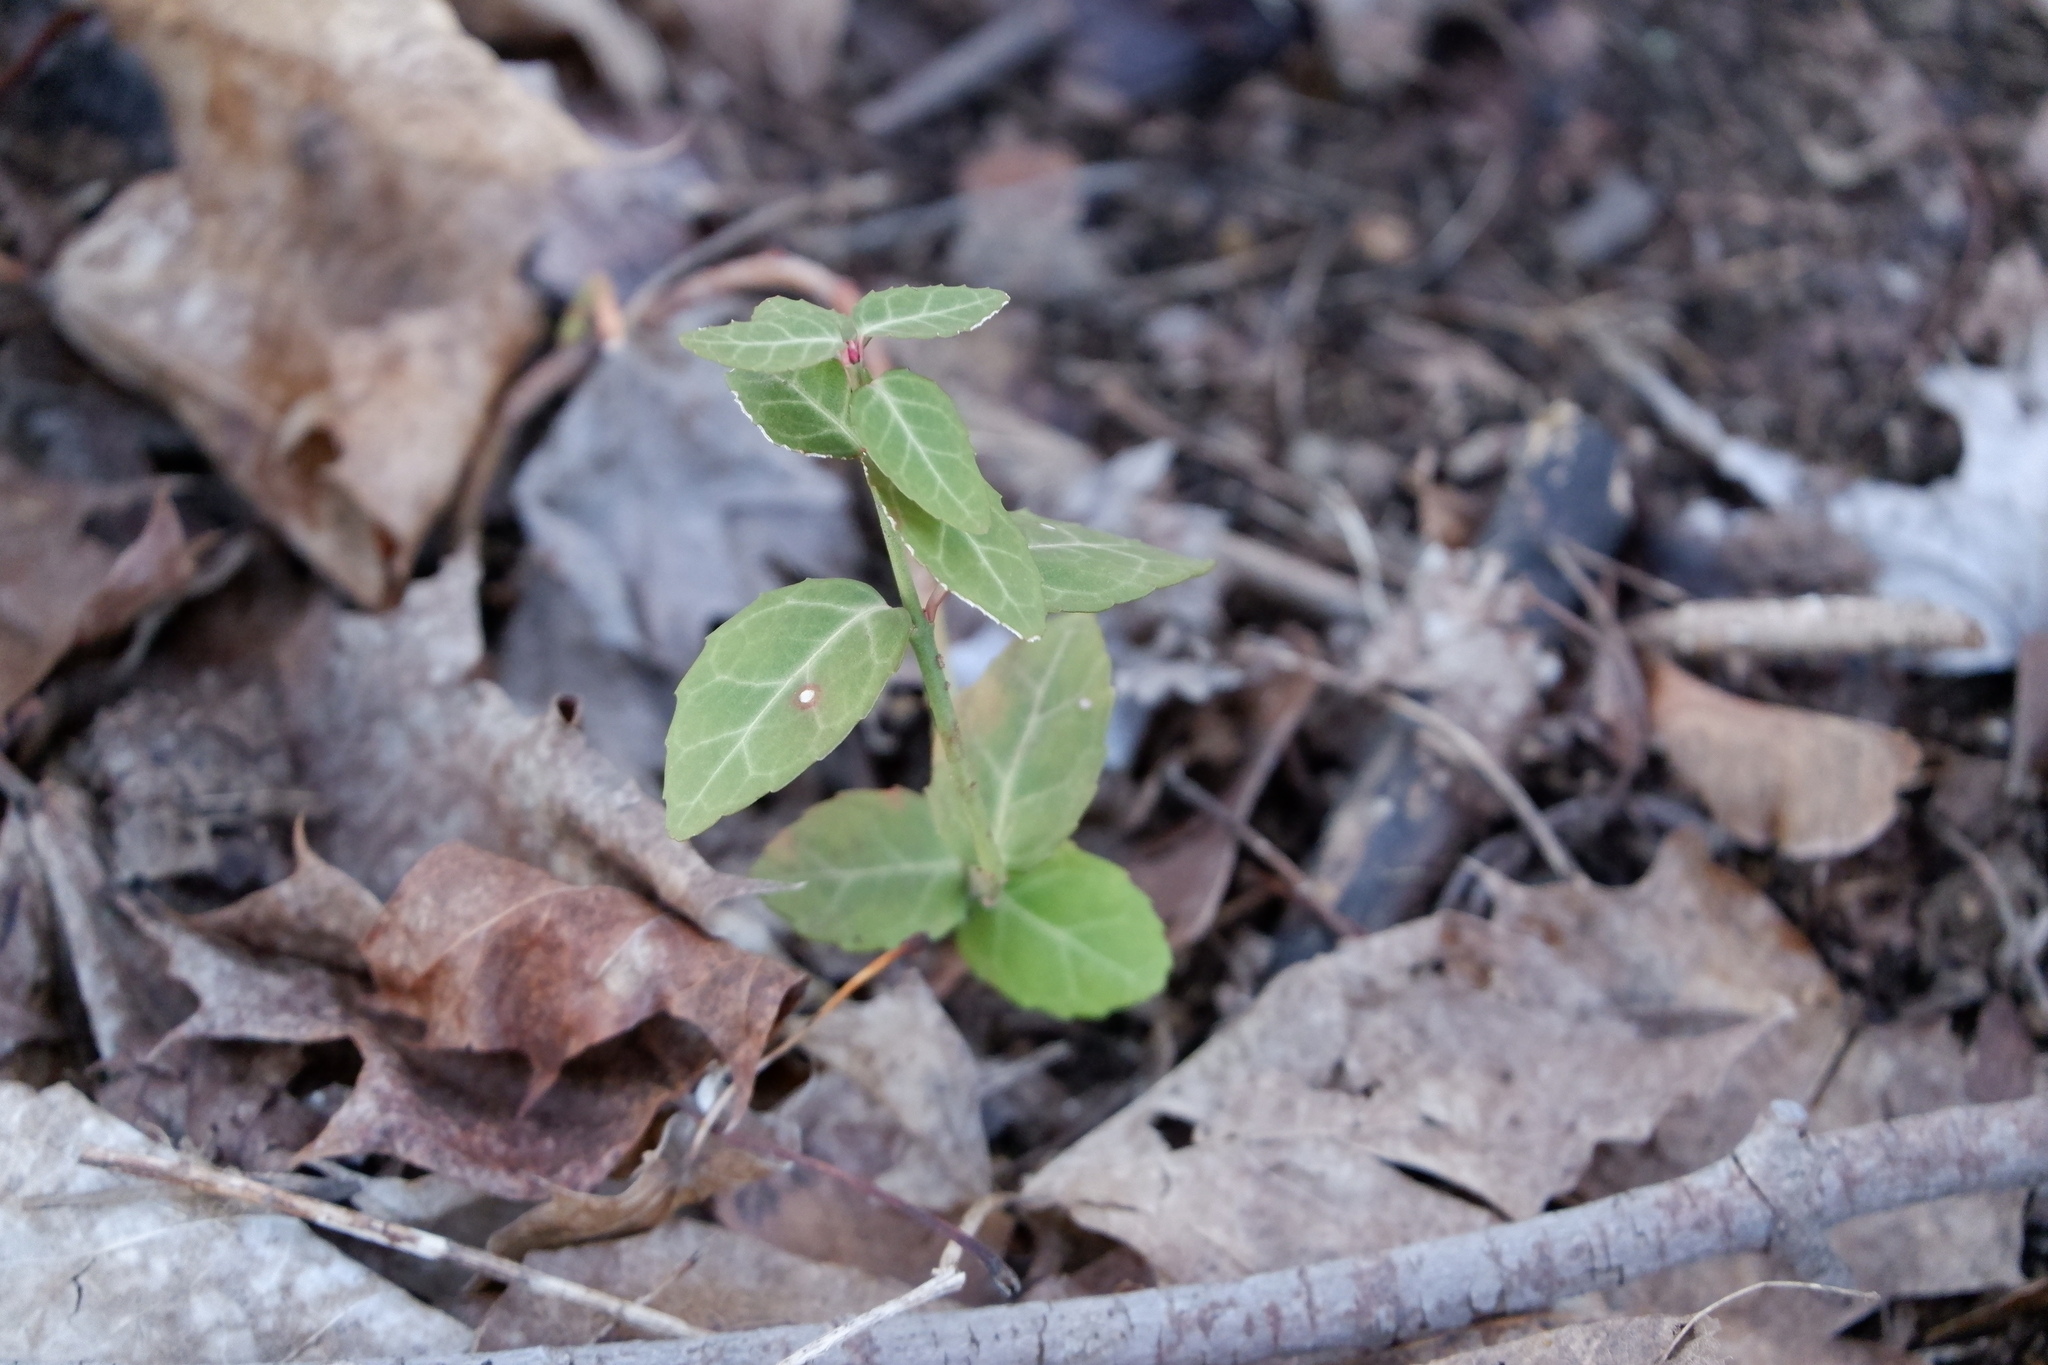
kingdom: Plantae
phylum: Tracheophyta
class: Magnoliopsida
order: Celastrales
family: Celastraceae
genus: Euonymus
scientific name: Euonymus fortunei
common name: Climbing euonymus
